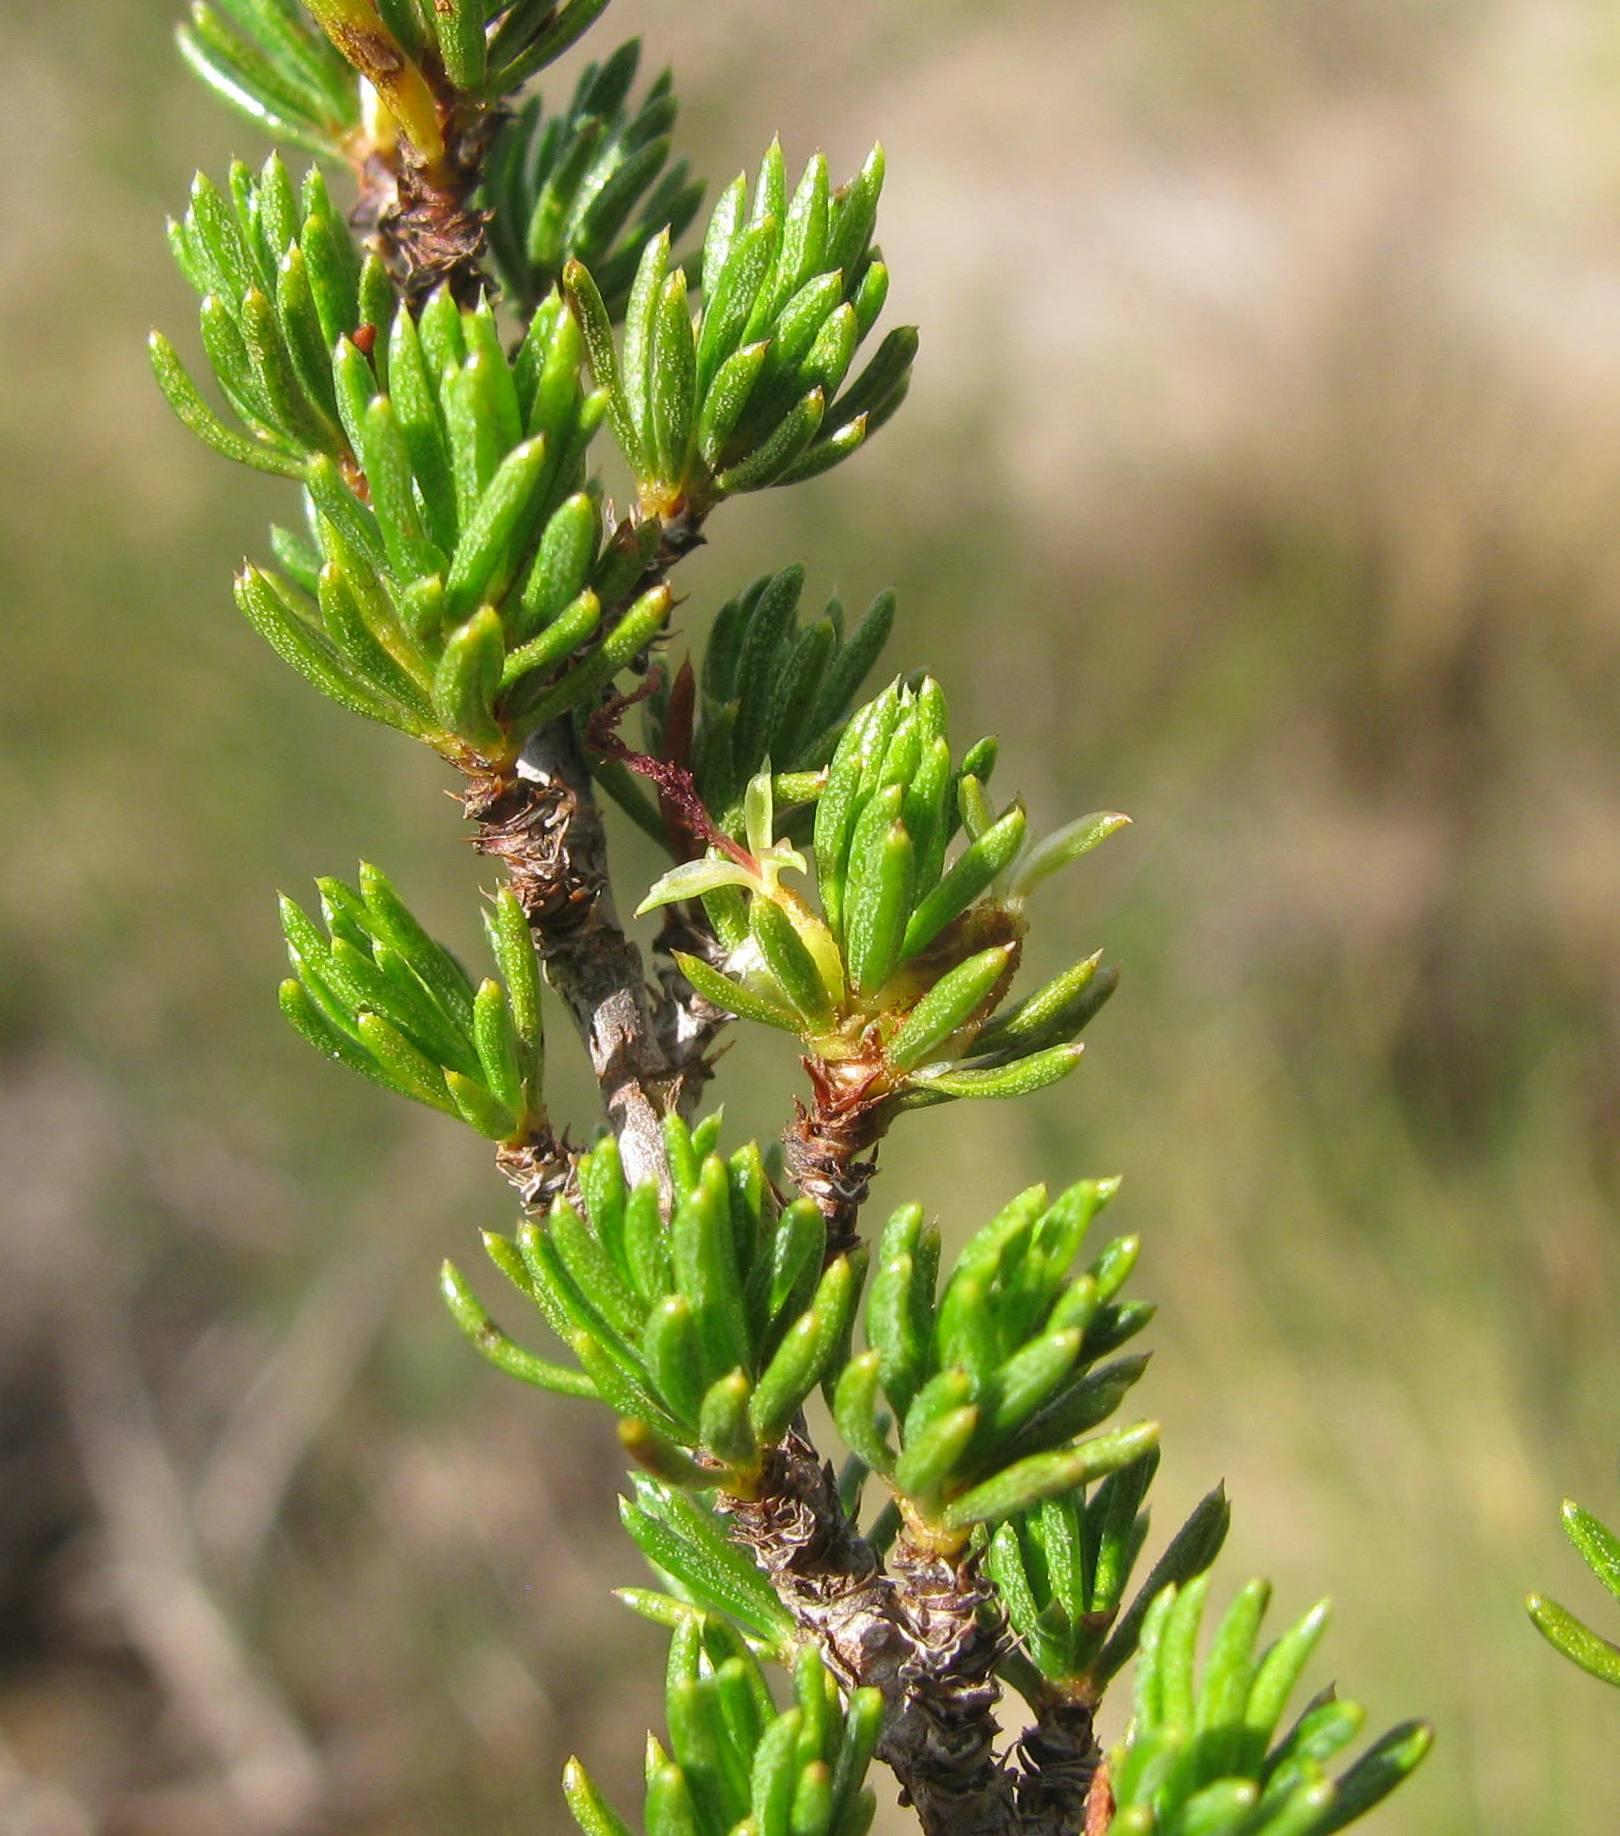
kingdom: Plantae
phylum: Tracheophyta
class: Magnoliopsida
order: Rosales
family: Rosaceae
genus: Cliffortia
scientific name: Cliffortia teretifolia
